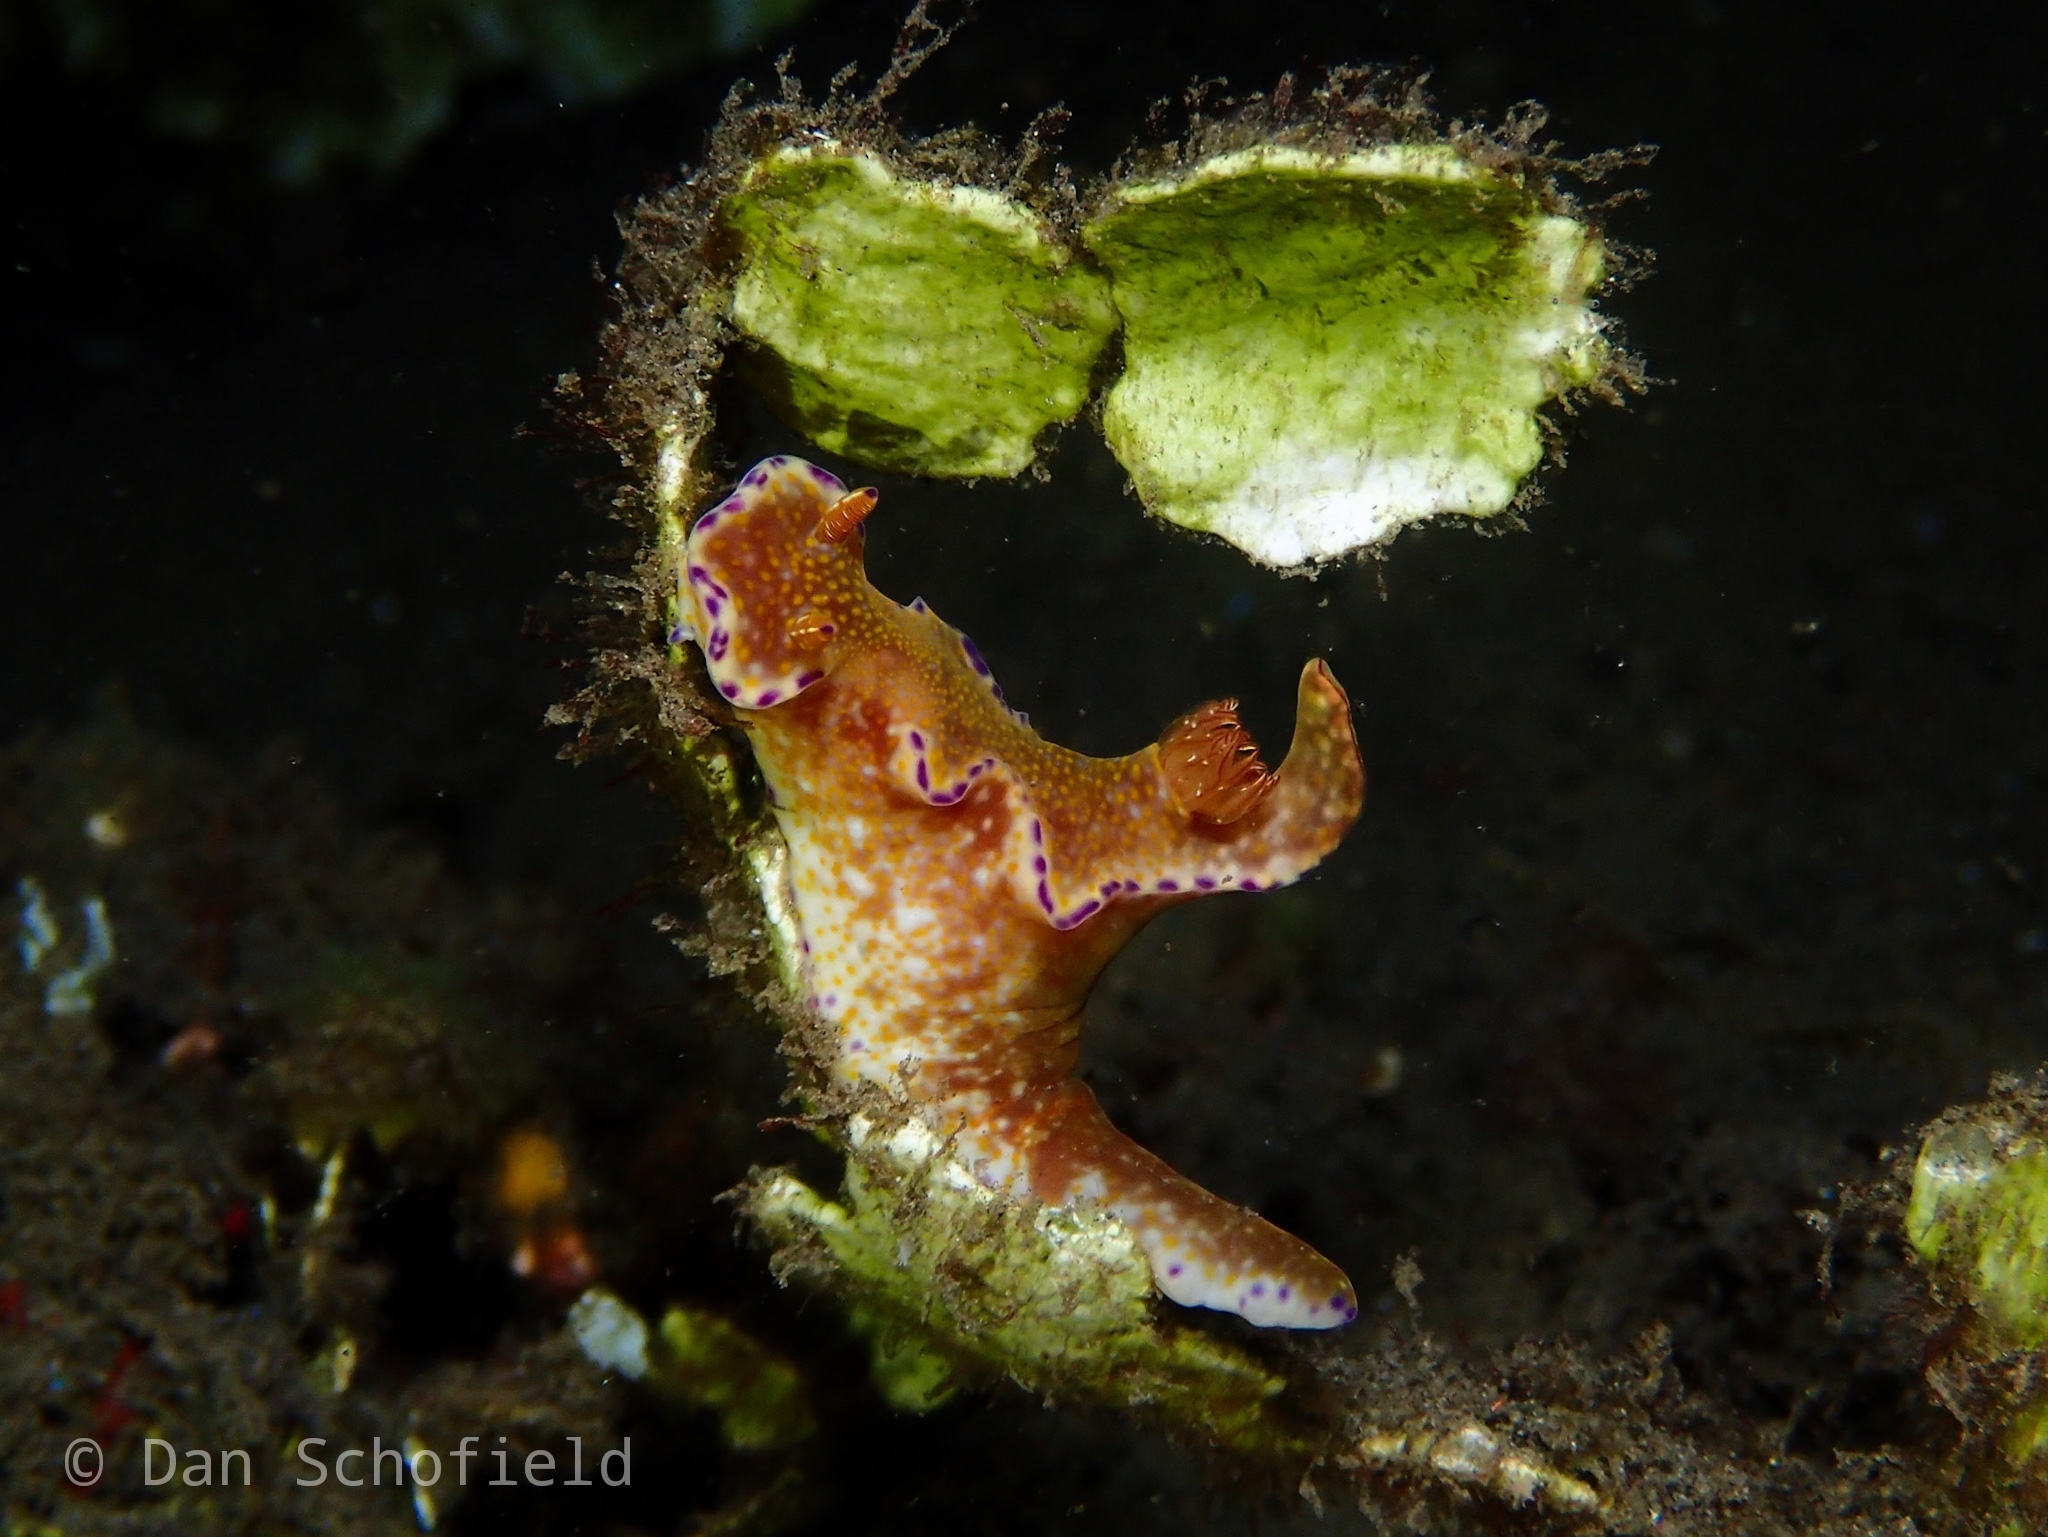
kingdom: Animalia
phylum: Mollusca
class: Gastropoda
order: Nudibranchia
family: Chromodorididae
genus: Ceratosoma
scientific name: Ceratosoma tenue
